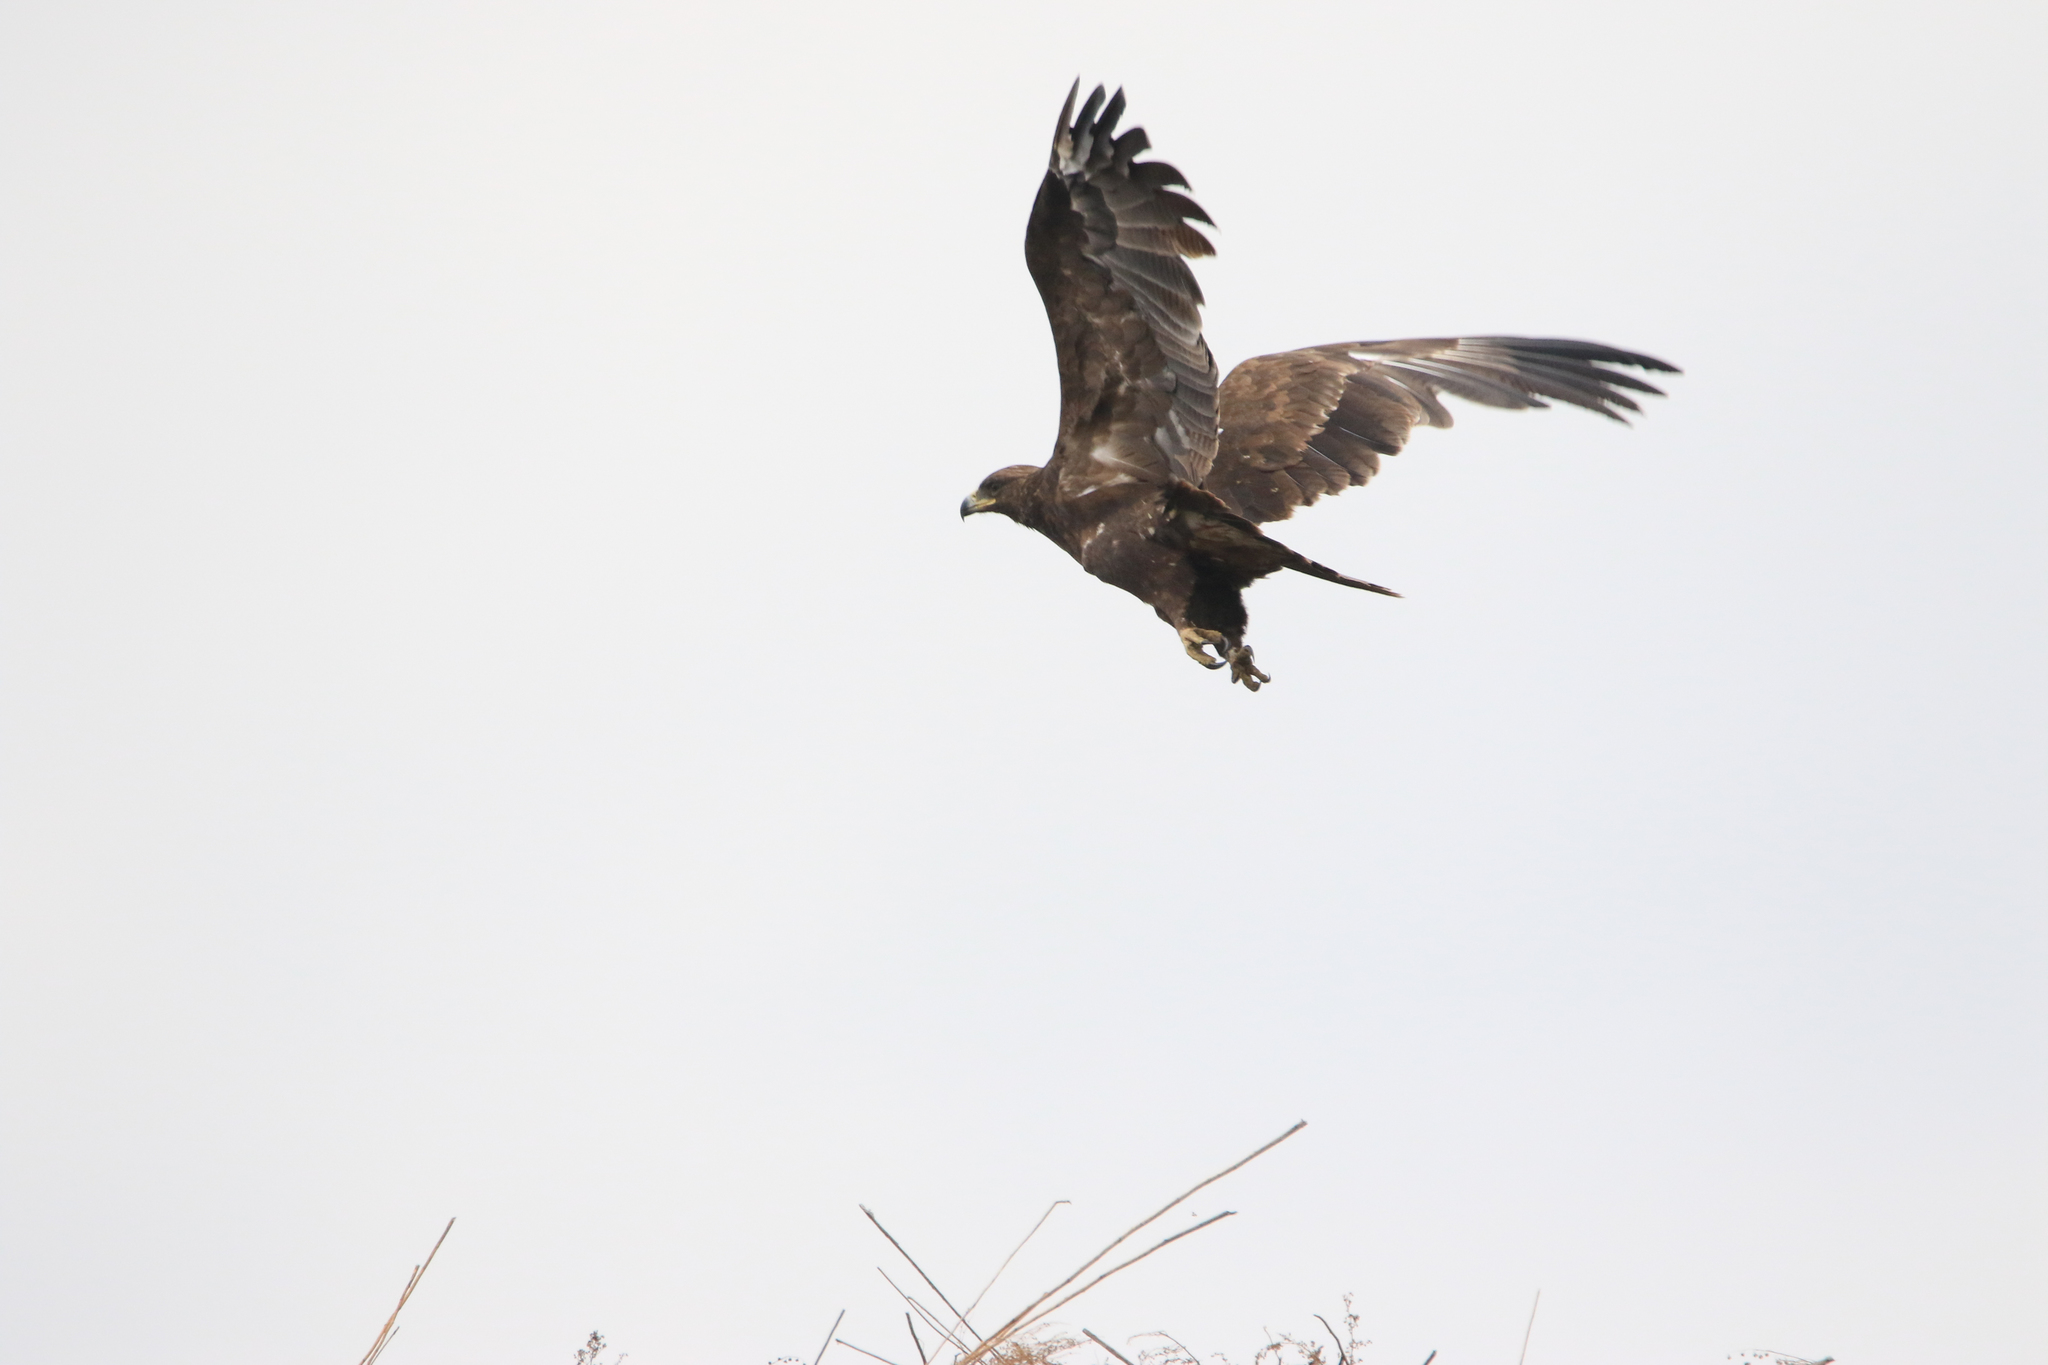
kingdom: Animalia
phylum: Chordata
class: Aves
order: Accipitriformes
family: Accipitridae
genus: Aquila
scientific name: Aquila clanga
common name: Greater spotted eagle
